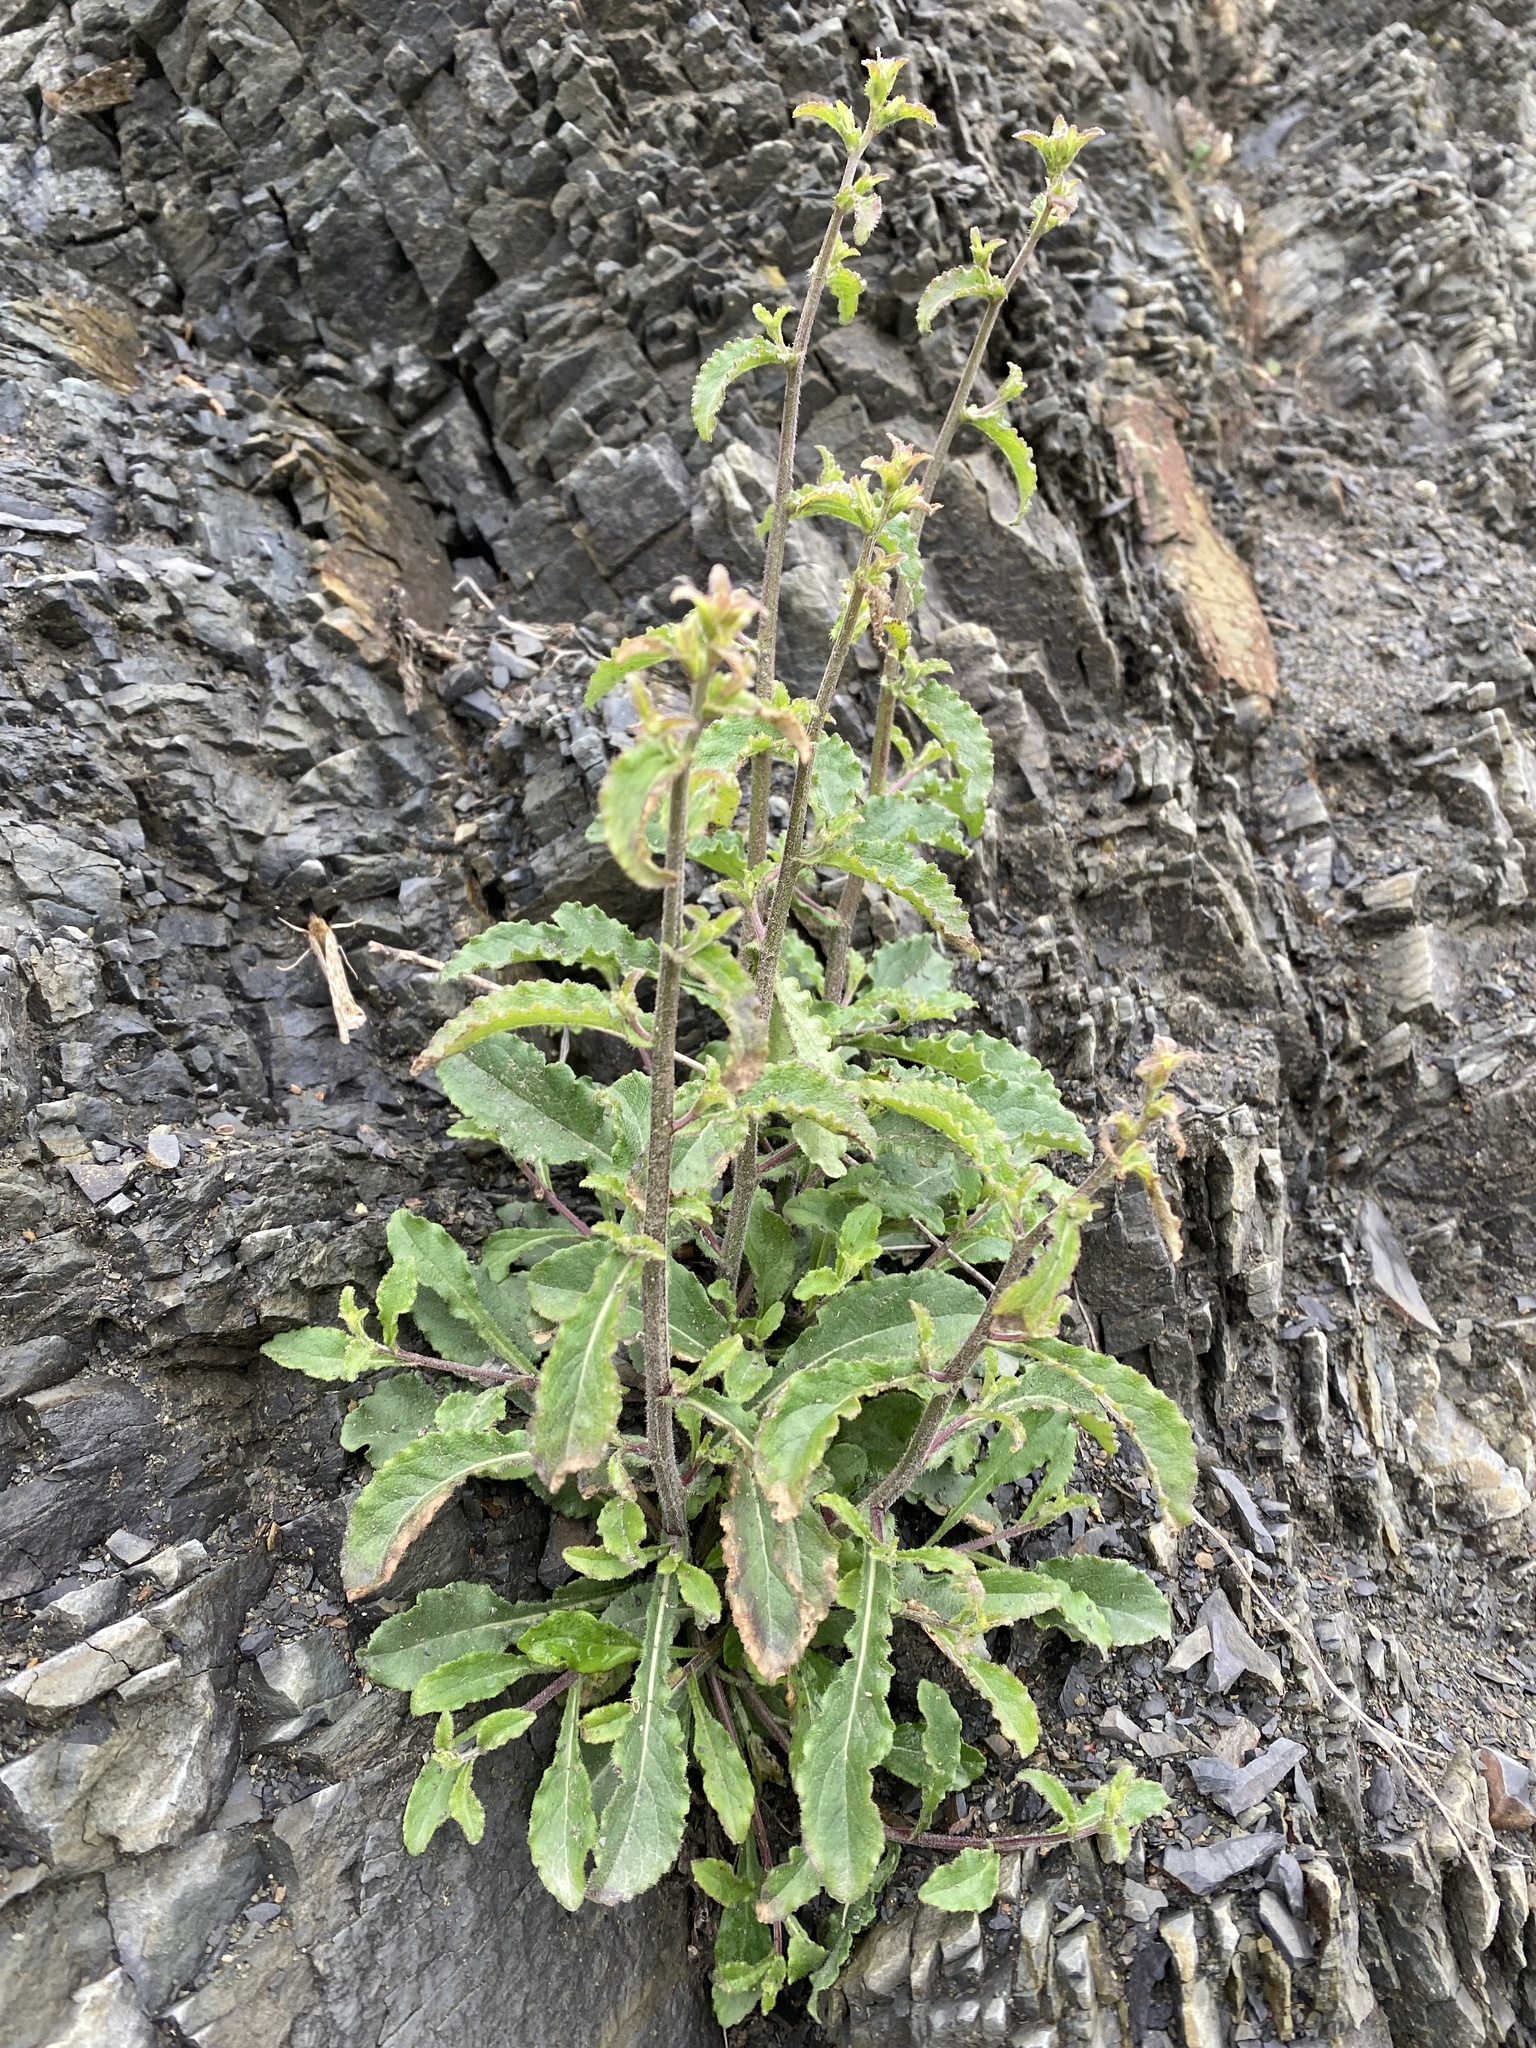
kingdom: Plantae
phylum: Tracheophyta
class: Magnoliopsida
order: Asterales
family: Campanulaceae
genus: Campanula
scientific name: Campanula komarovii
